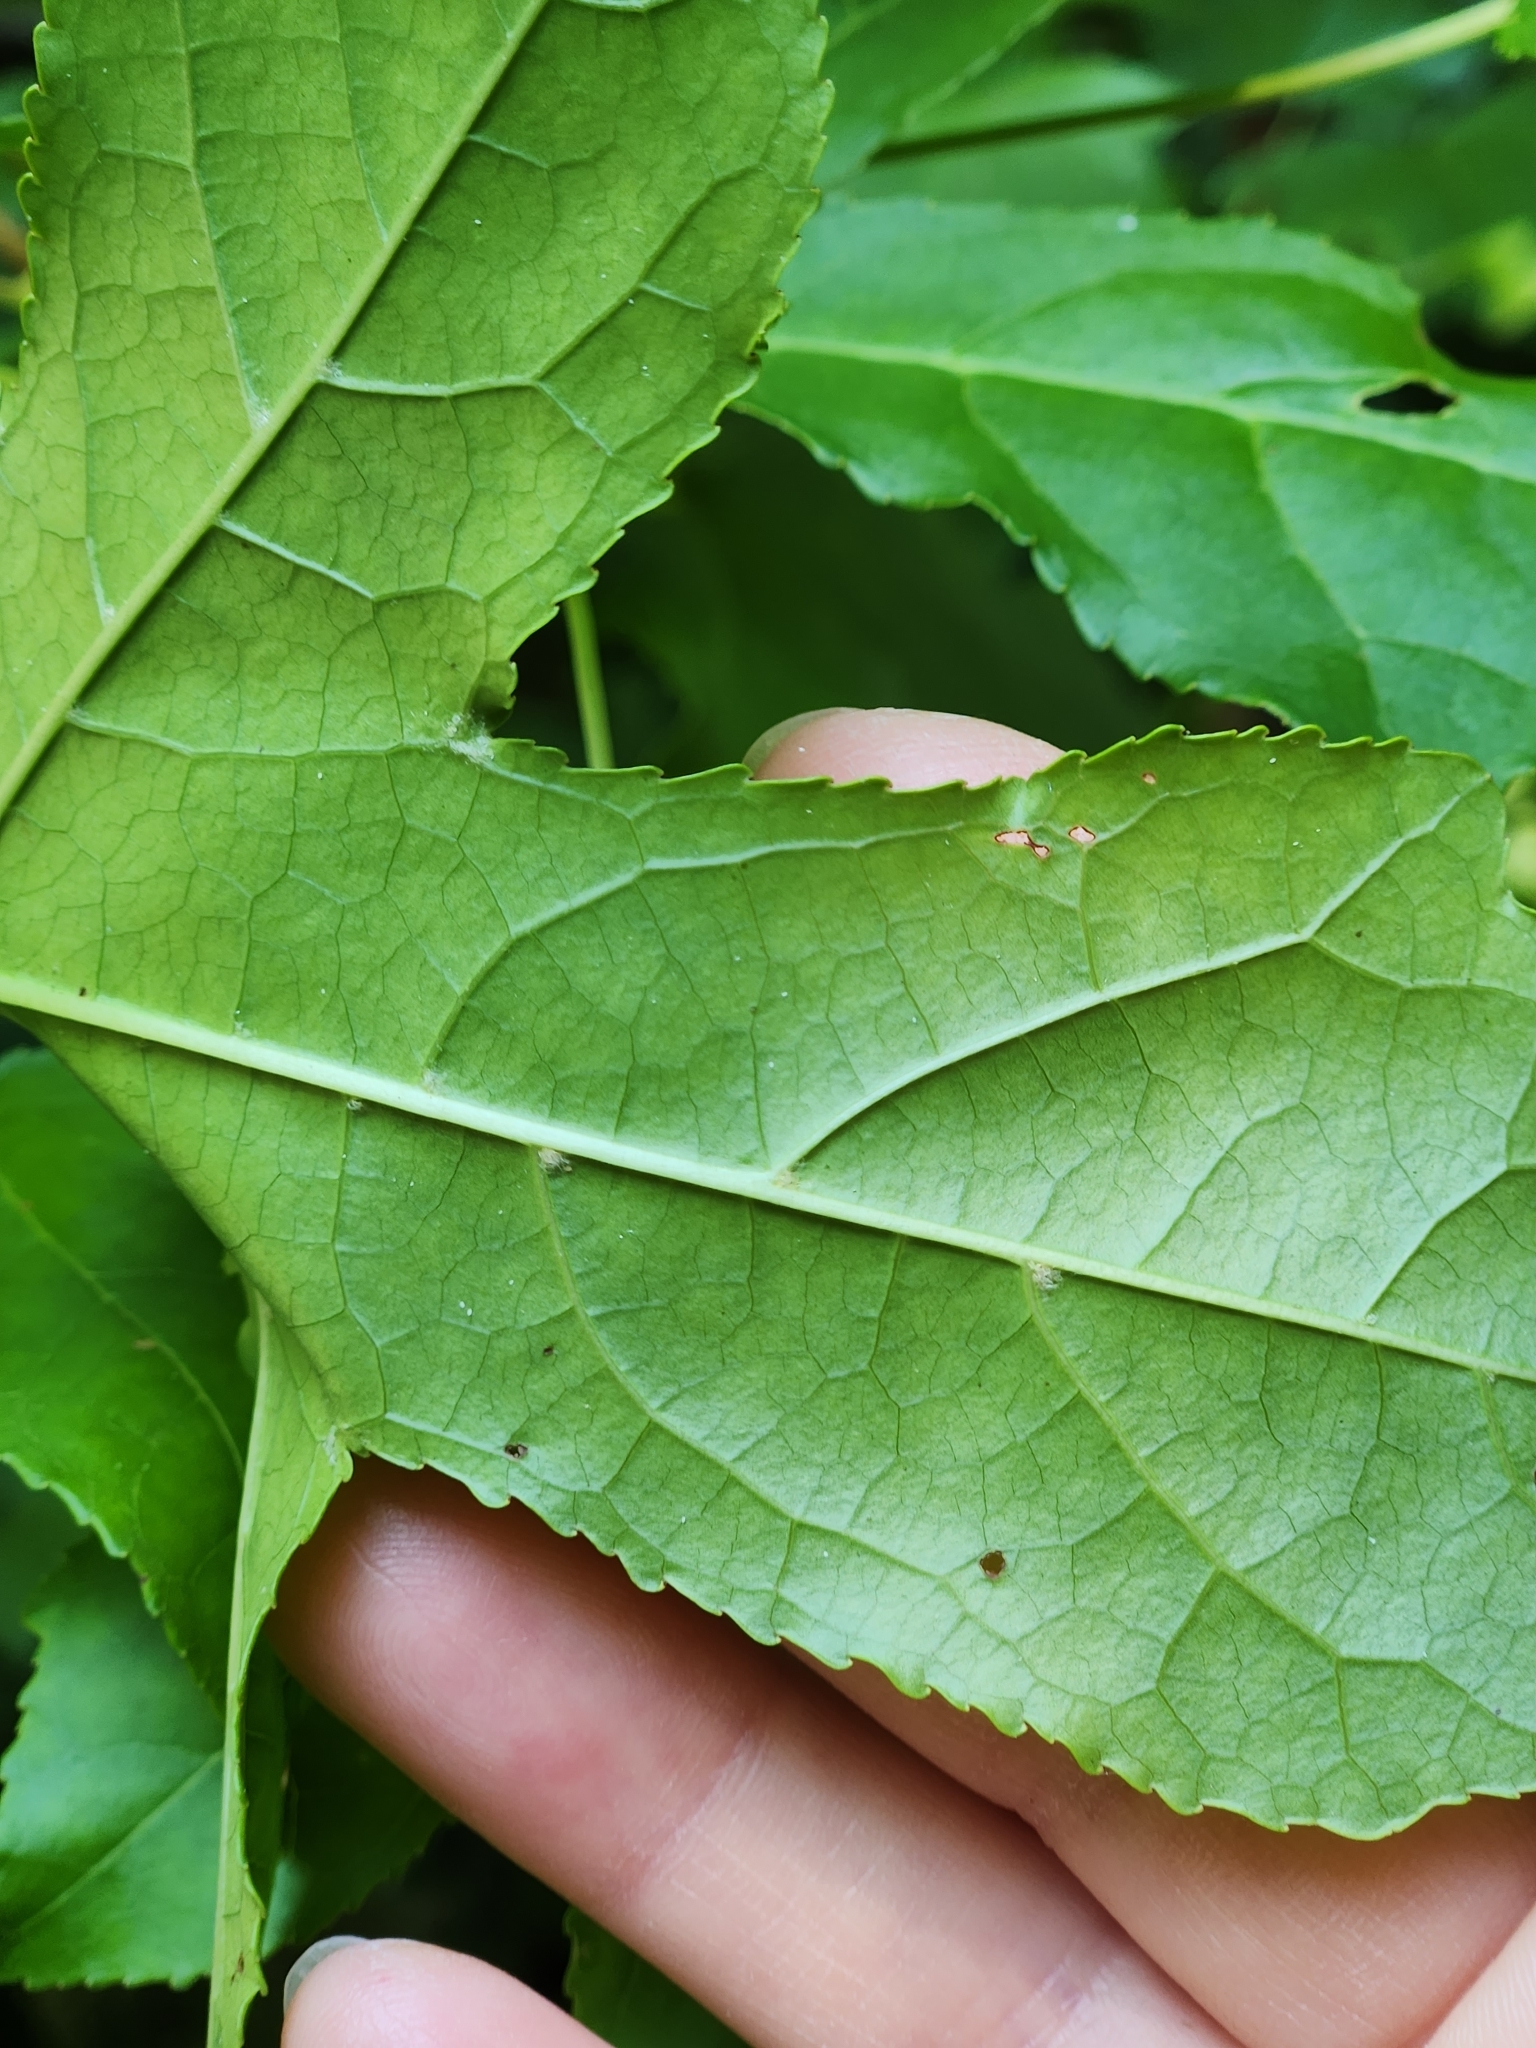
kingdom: Plantae
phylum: Tracheophyta
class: Magnoliopsida
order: Saxifragales
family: Altingiaceae
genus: Liquidambar
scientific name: Liquidambar styraciflua
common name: Sweet gum
